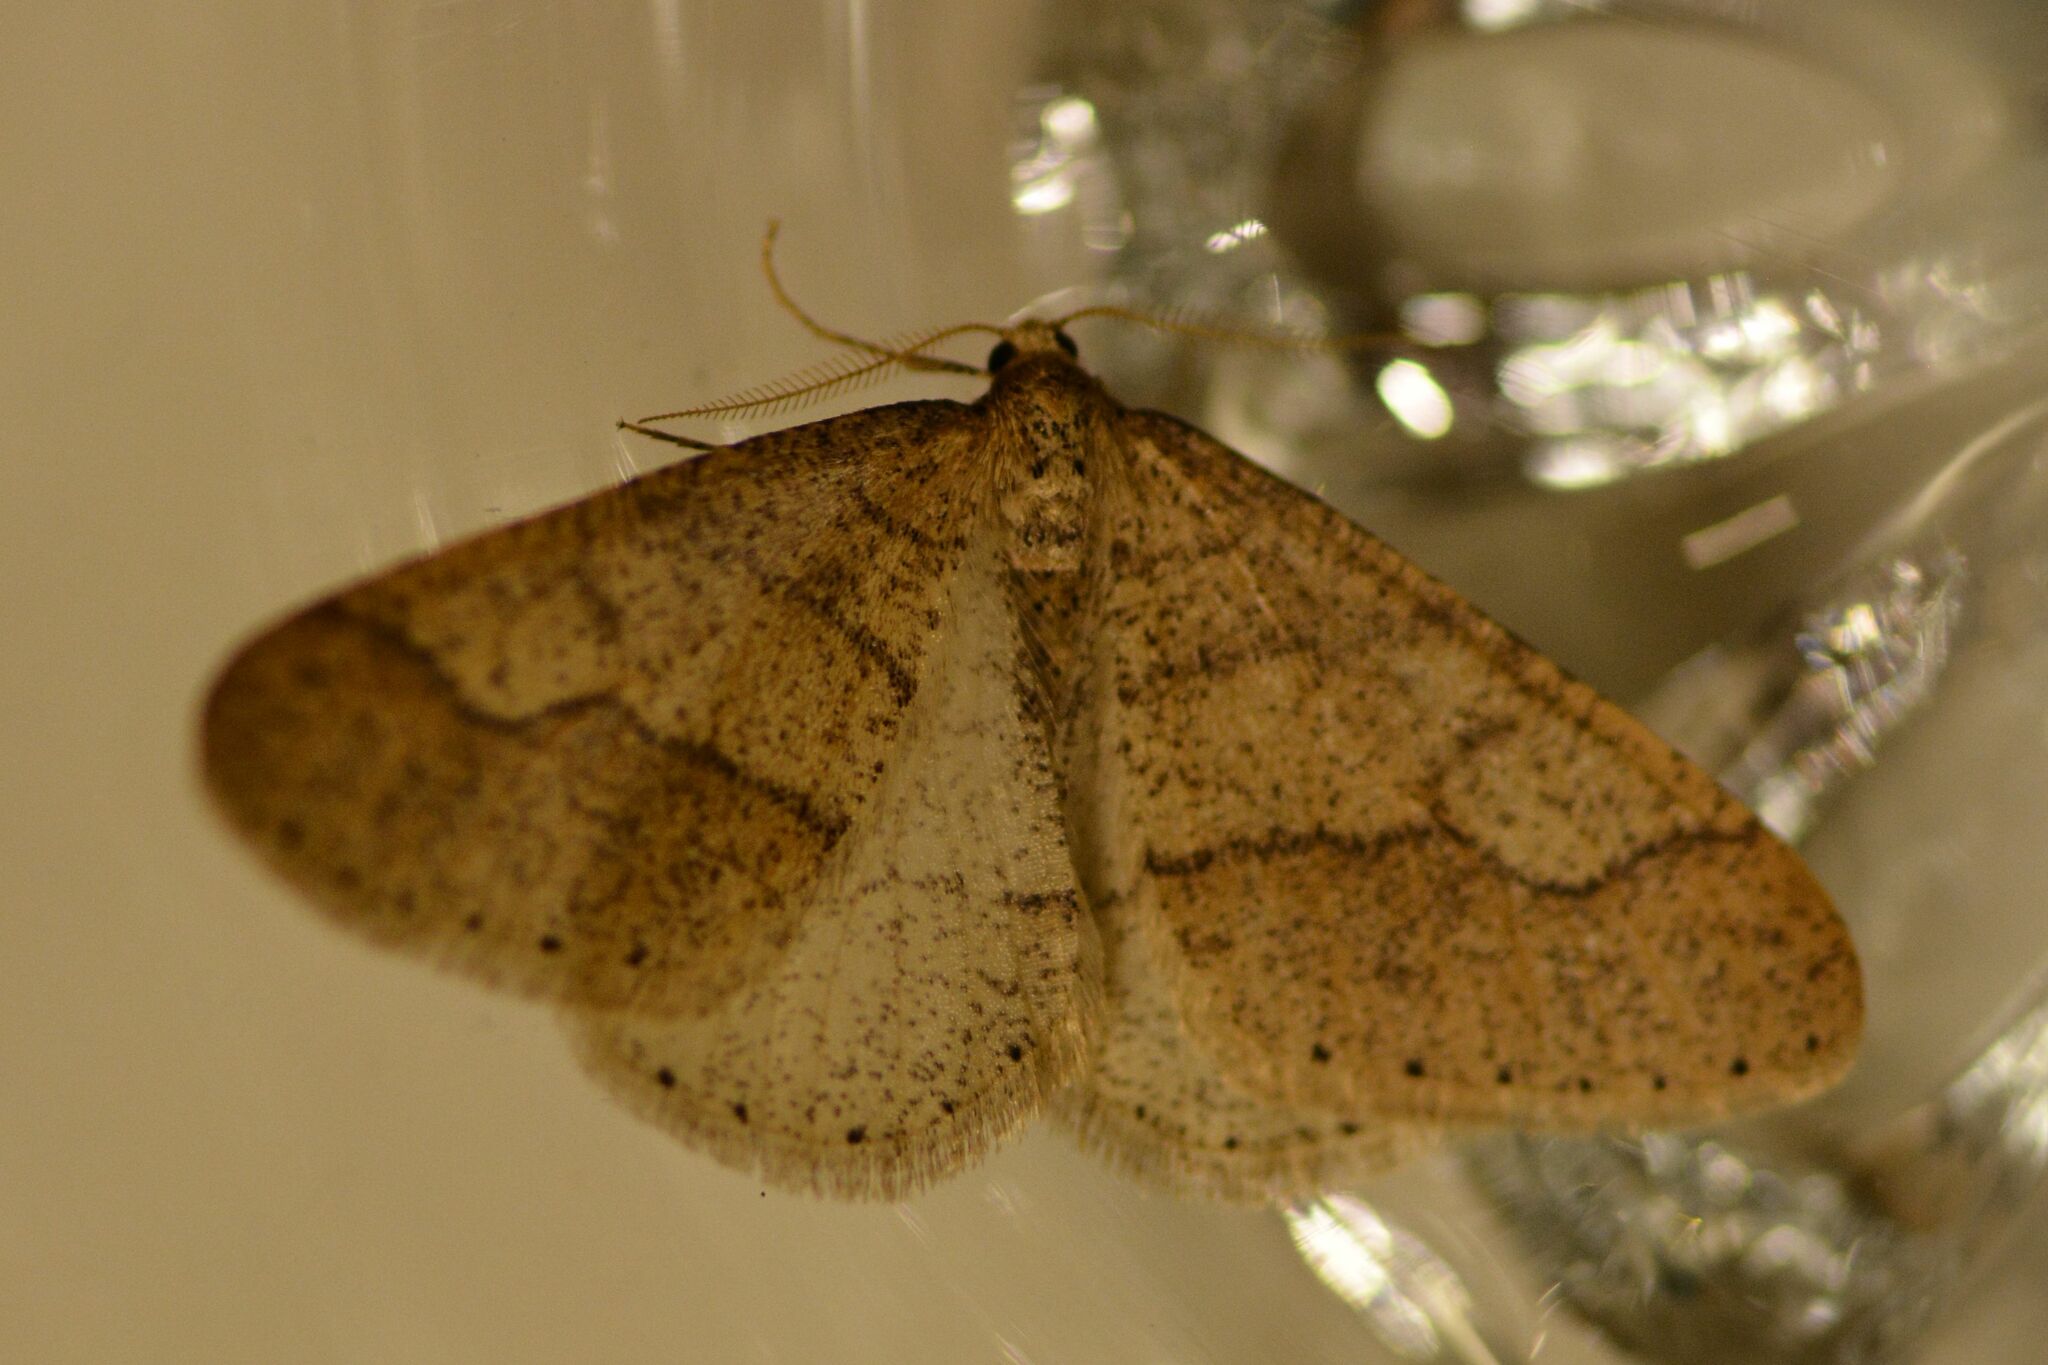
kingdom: Animalia
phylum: Arthropoda
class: Insecta
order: Lepidoptera
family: Geometridae
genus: Agriopis
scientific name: Agriopis marginaria
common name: Dotted border
